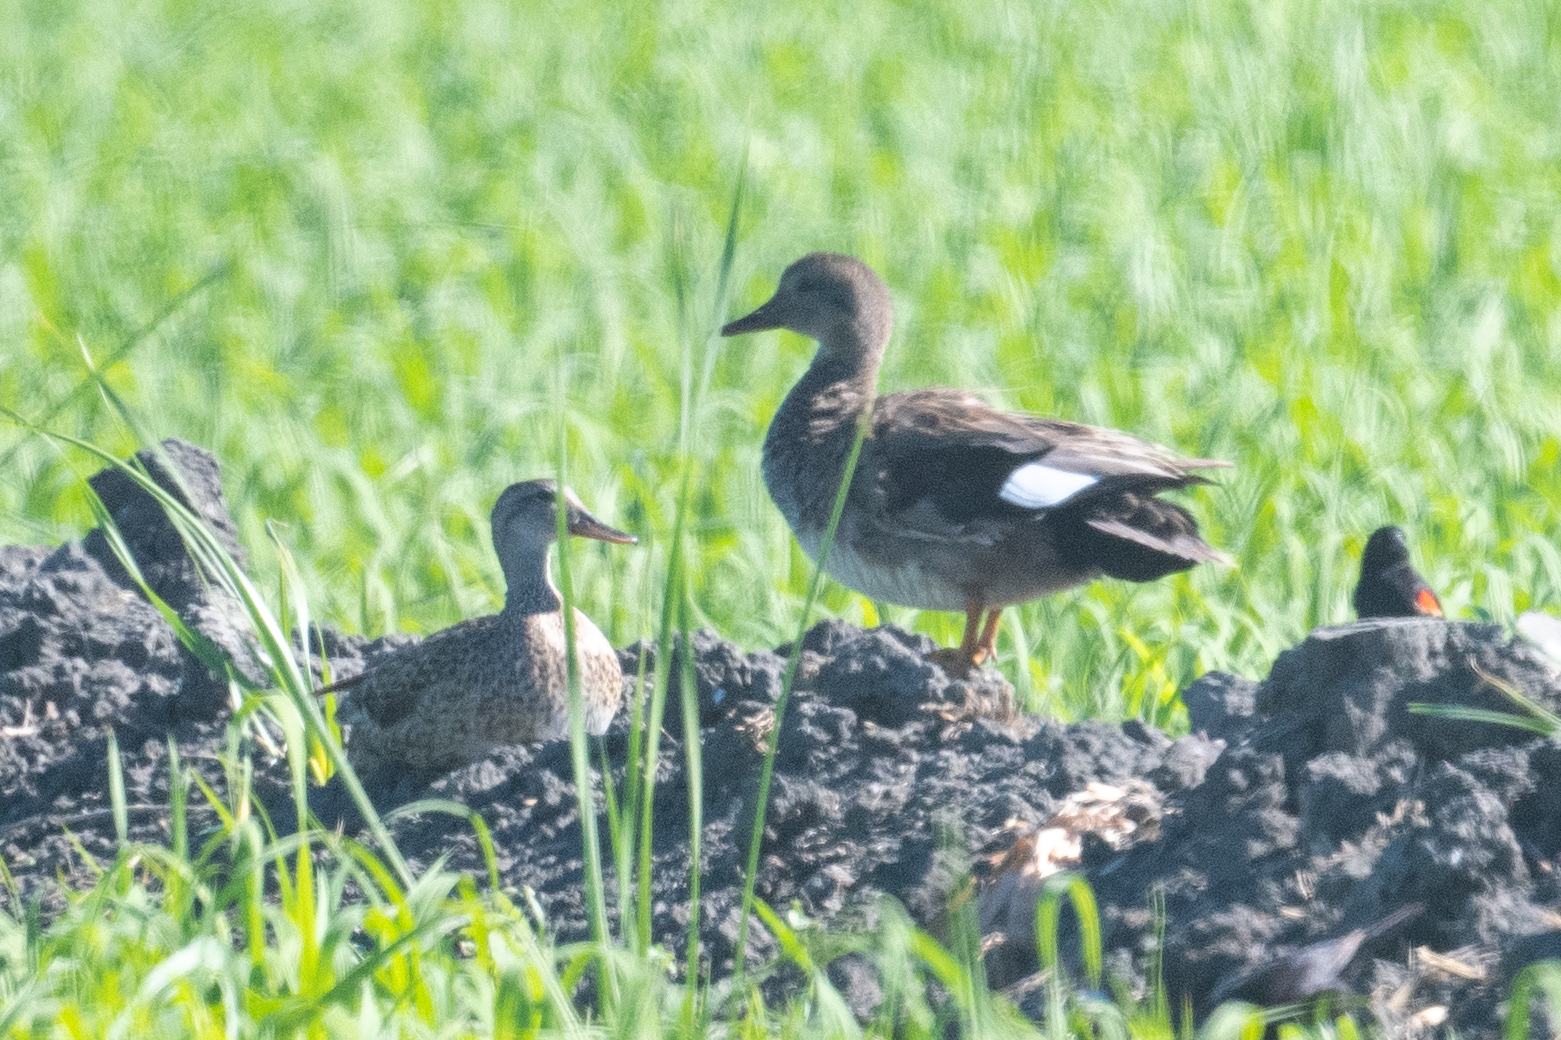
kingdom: Animalia
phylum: Chordata
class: Aves
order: Anseriformes
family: Anatidae
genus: Mareca
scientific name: Mareca strepera
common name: Gadwall
